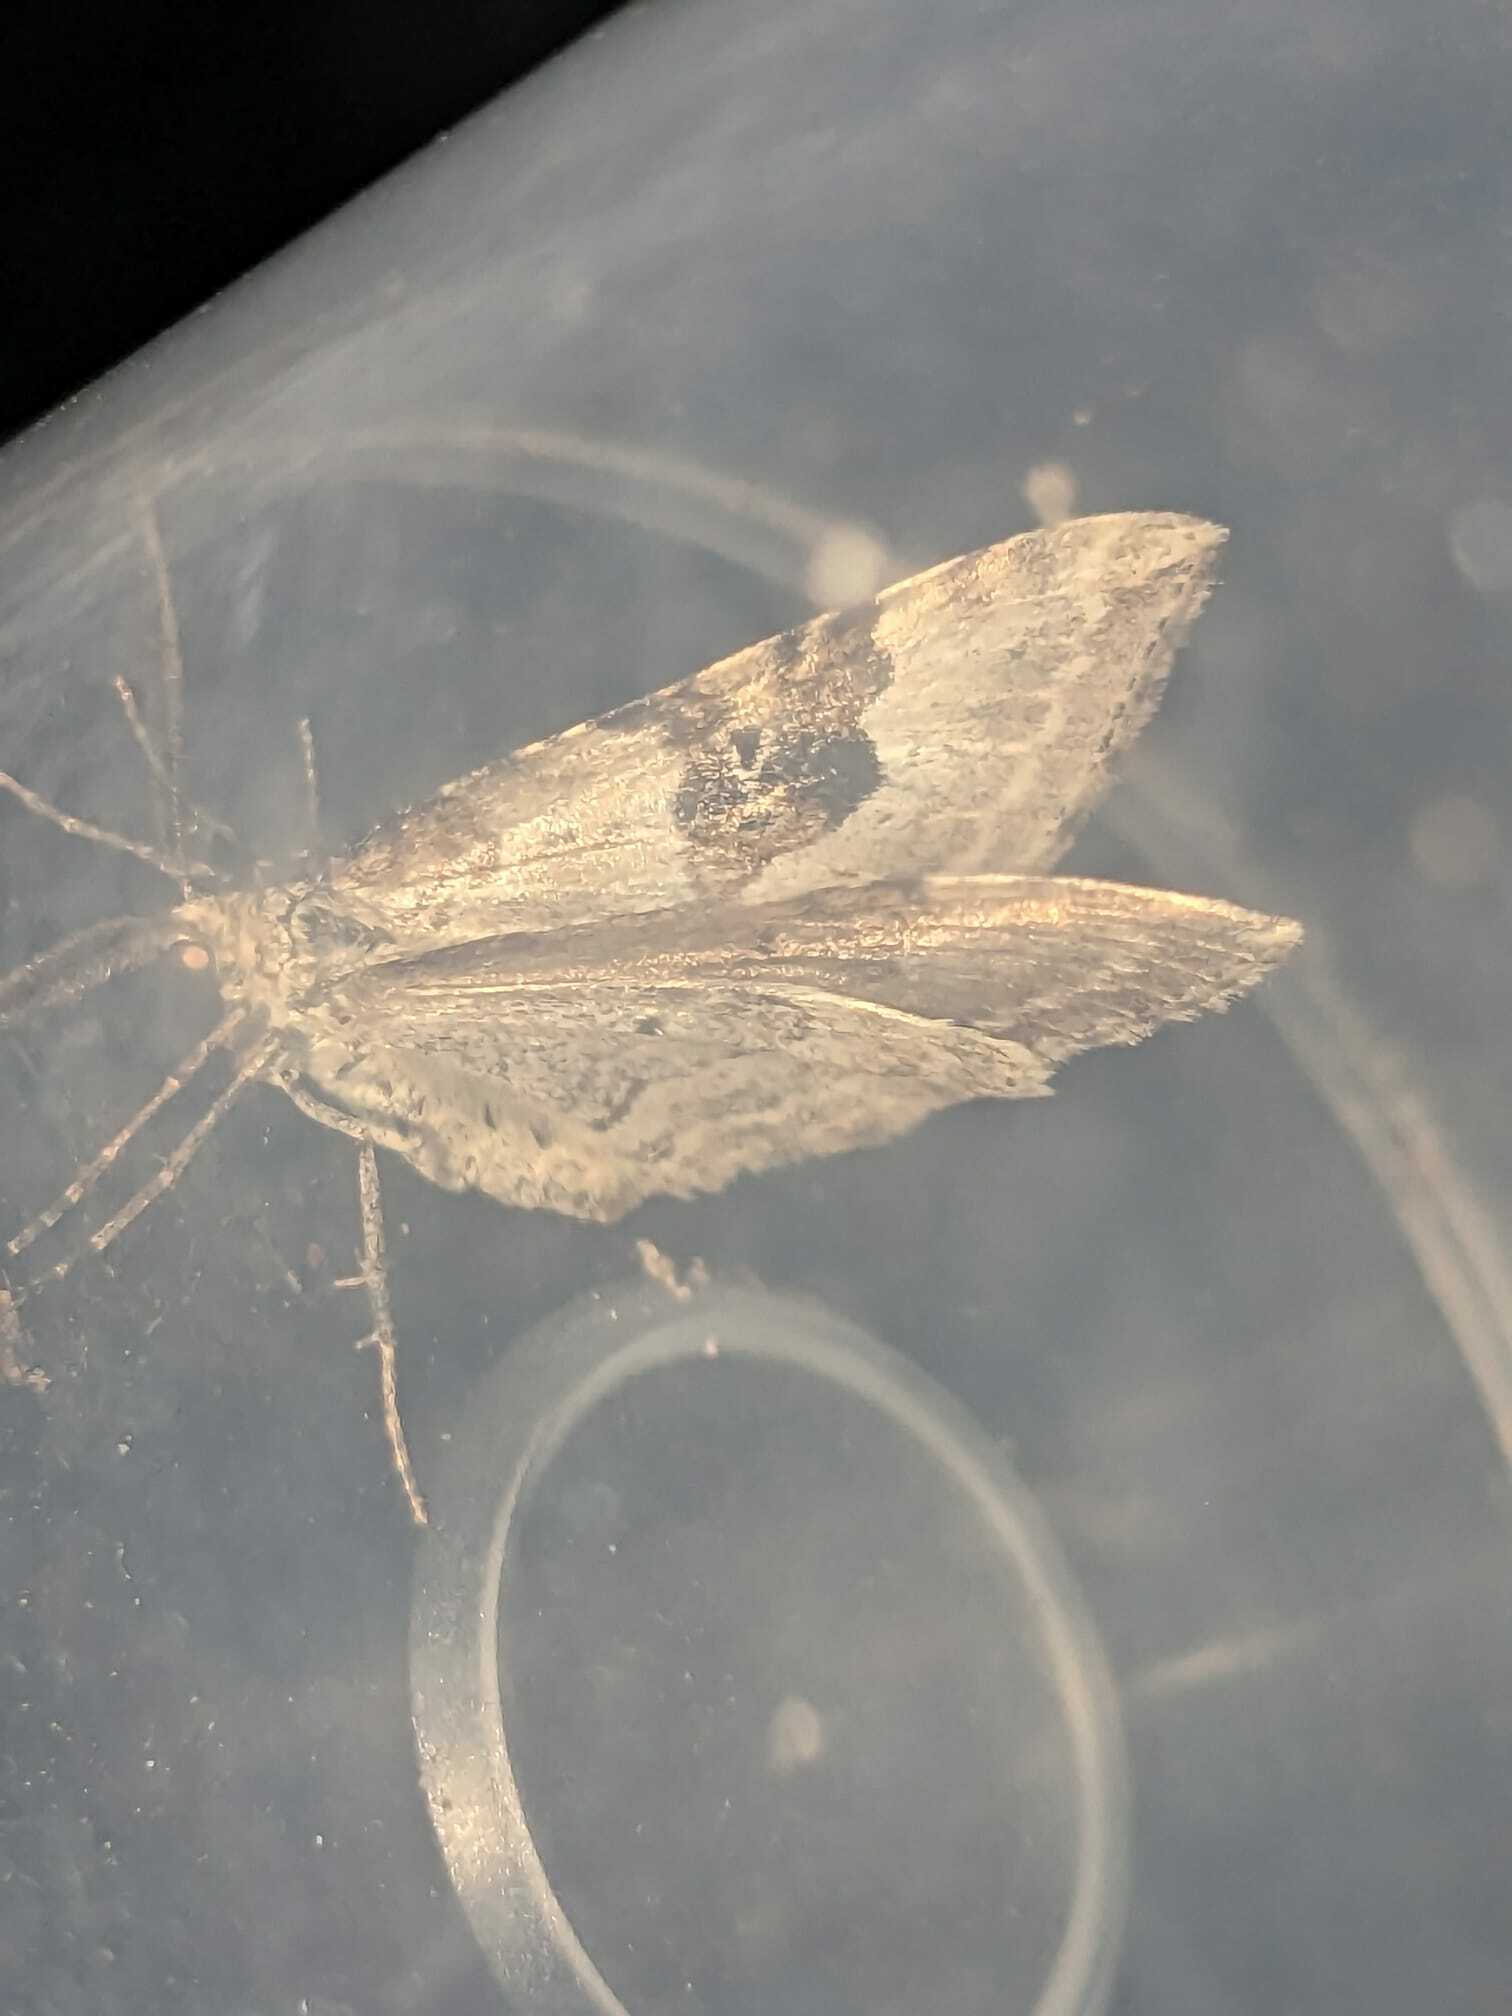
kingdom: Animalia
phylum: Arthropoda
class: Insecta
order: Lepidoptera
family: Geometridae
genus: Xanthorhoe
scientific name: Xanthorhoe montanata
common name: Silver-ground carpet
